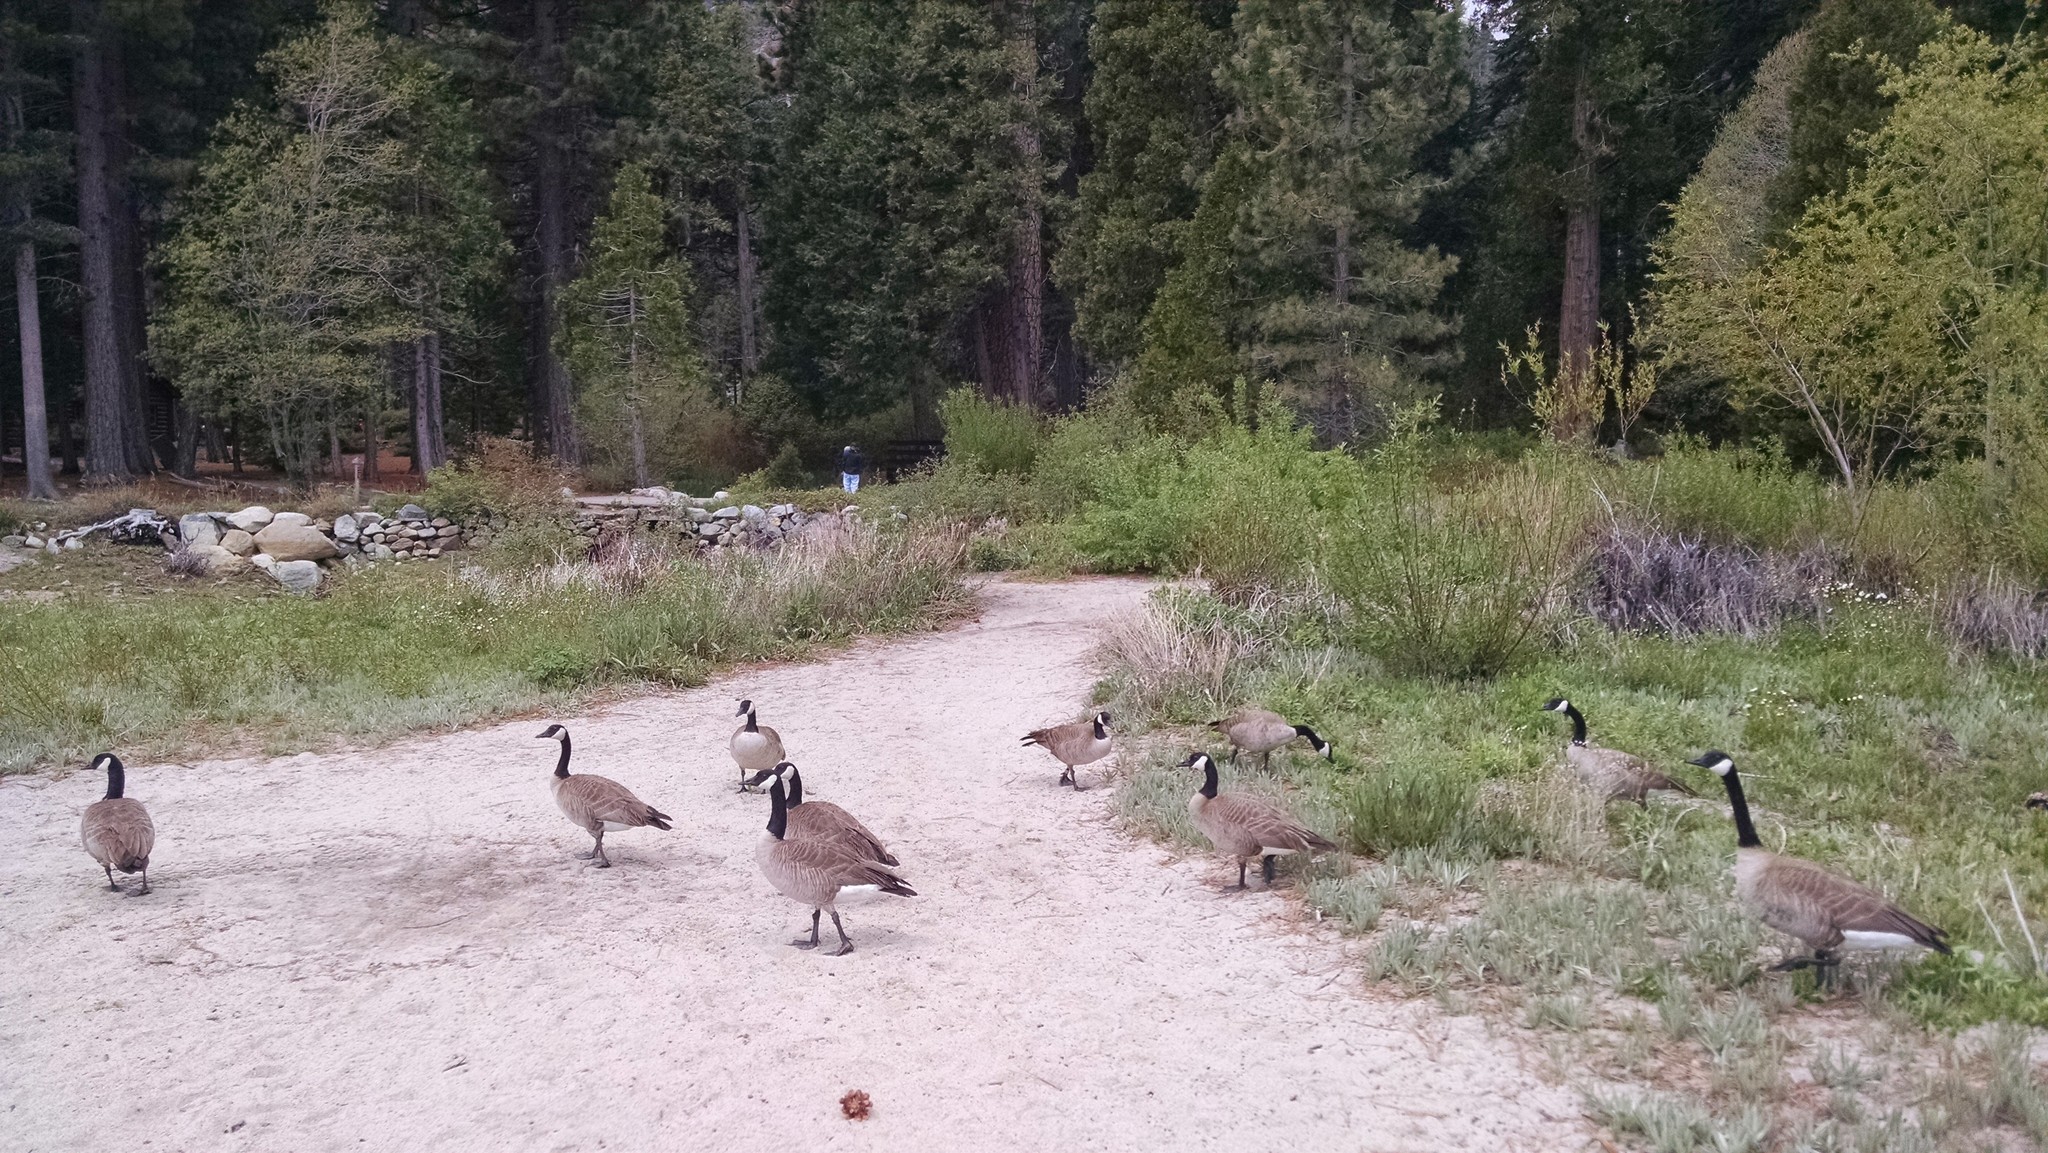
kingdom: Animalia
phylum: Chordata
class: Aves
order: Anseriformes
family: Anatidae
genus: Branta
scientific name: Branta canadensis
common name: Canada goose
